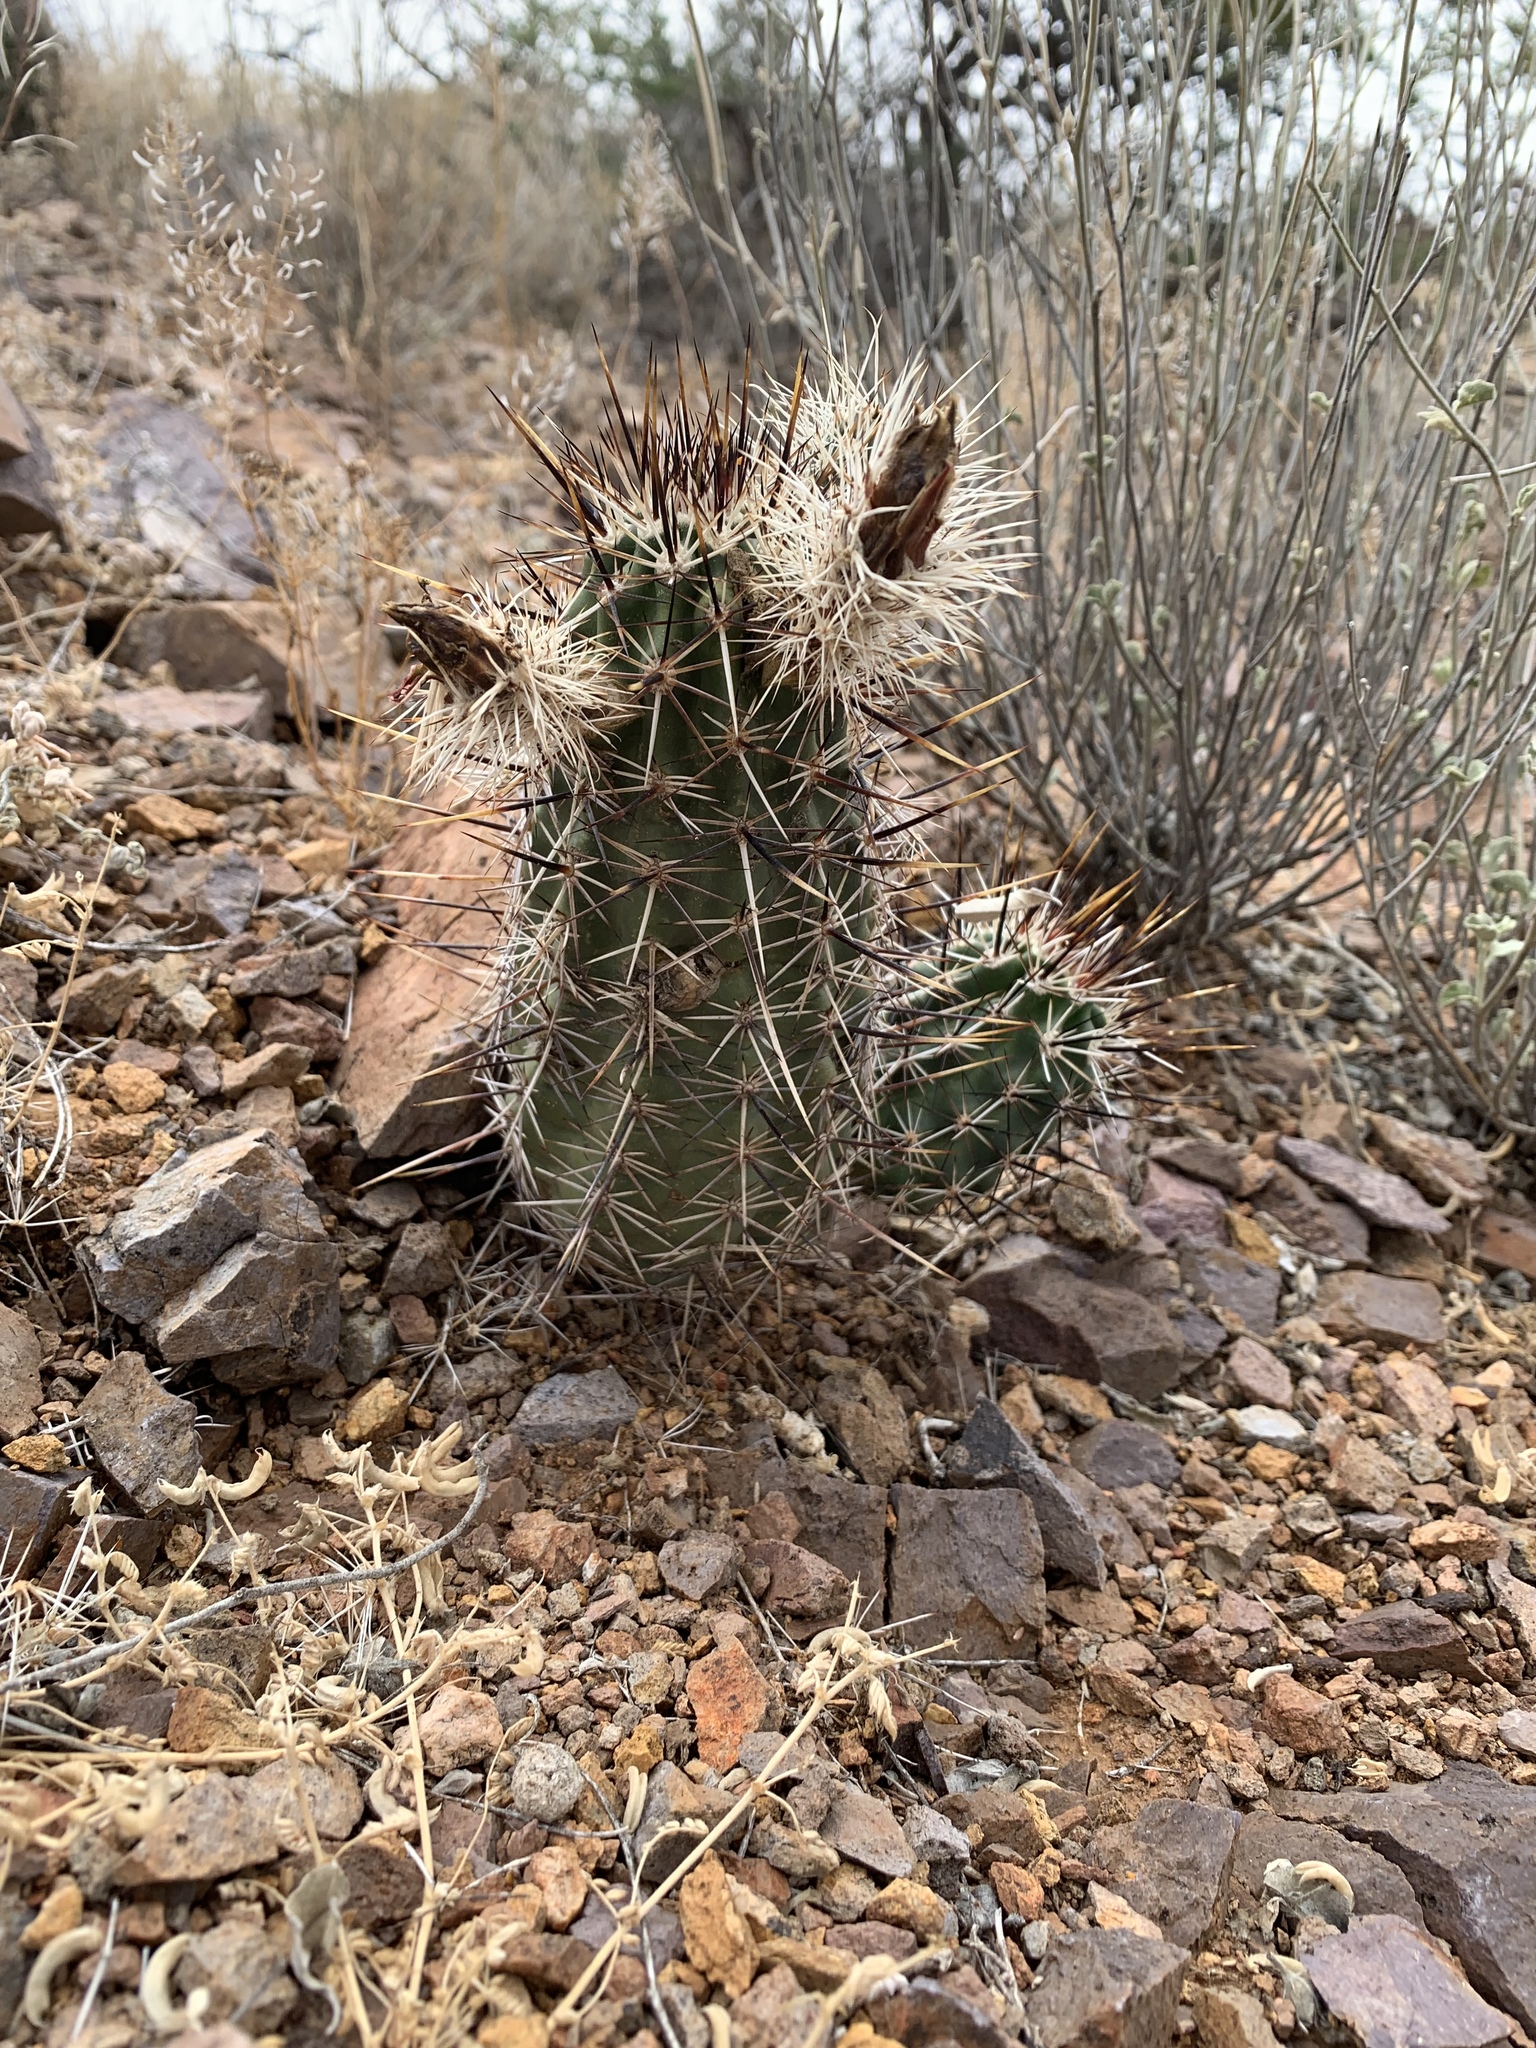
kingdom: Plantae
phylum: Tracheophyta
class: Magnoliopsida
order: Caryophyllales
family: Cactaceae
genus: Echinocereus
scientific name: Echinocereus fendleri
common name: Fendler's hedgehog cactus
